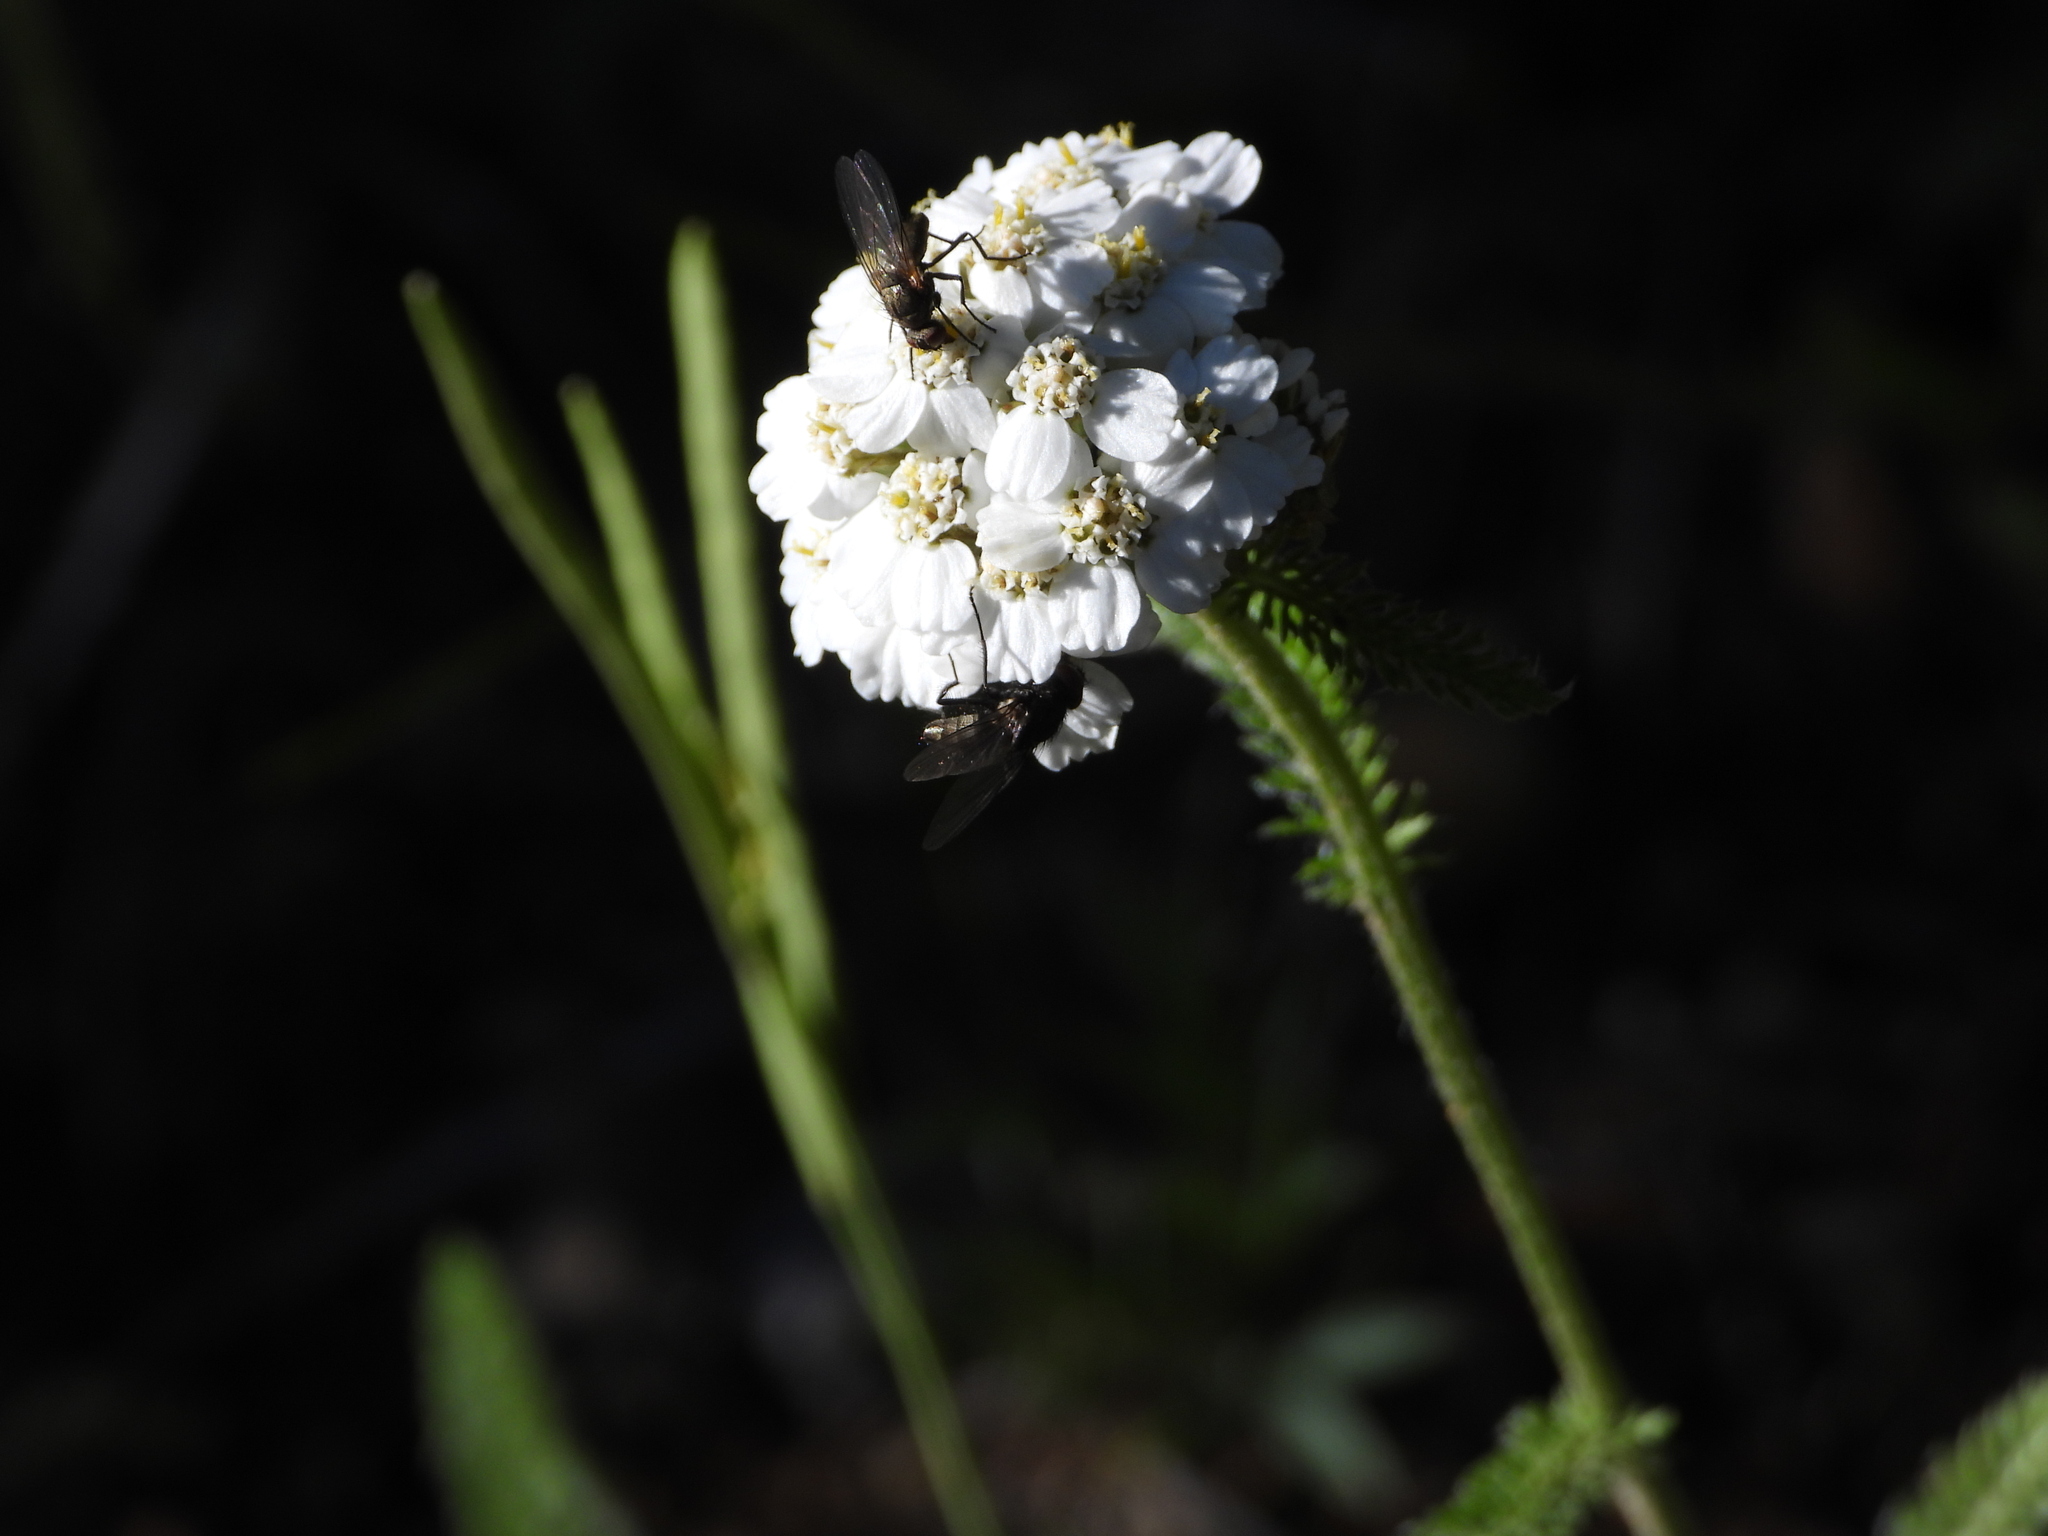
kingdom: Plantae
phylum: Tracheophyta
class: Magnoliopsida
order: Asterales
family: Asteraceae
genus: Achillea
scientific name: Achillea millefolium
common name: Yarrow
